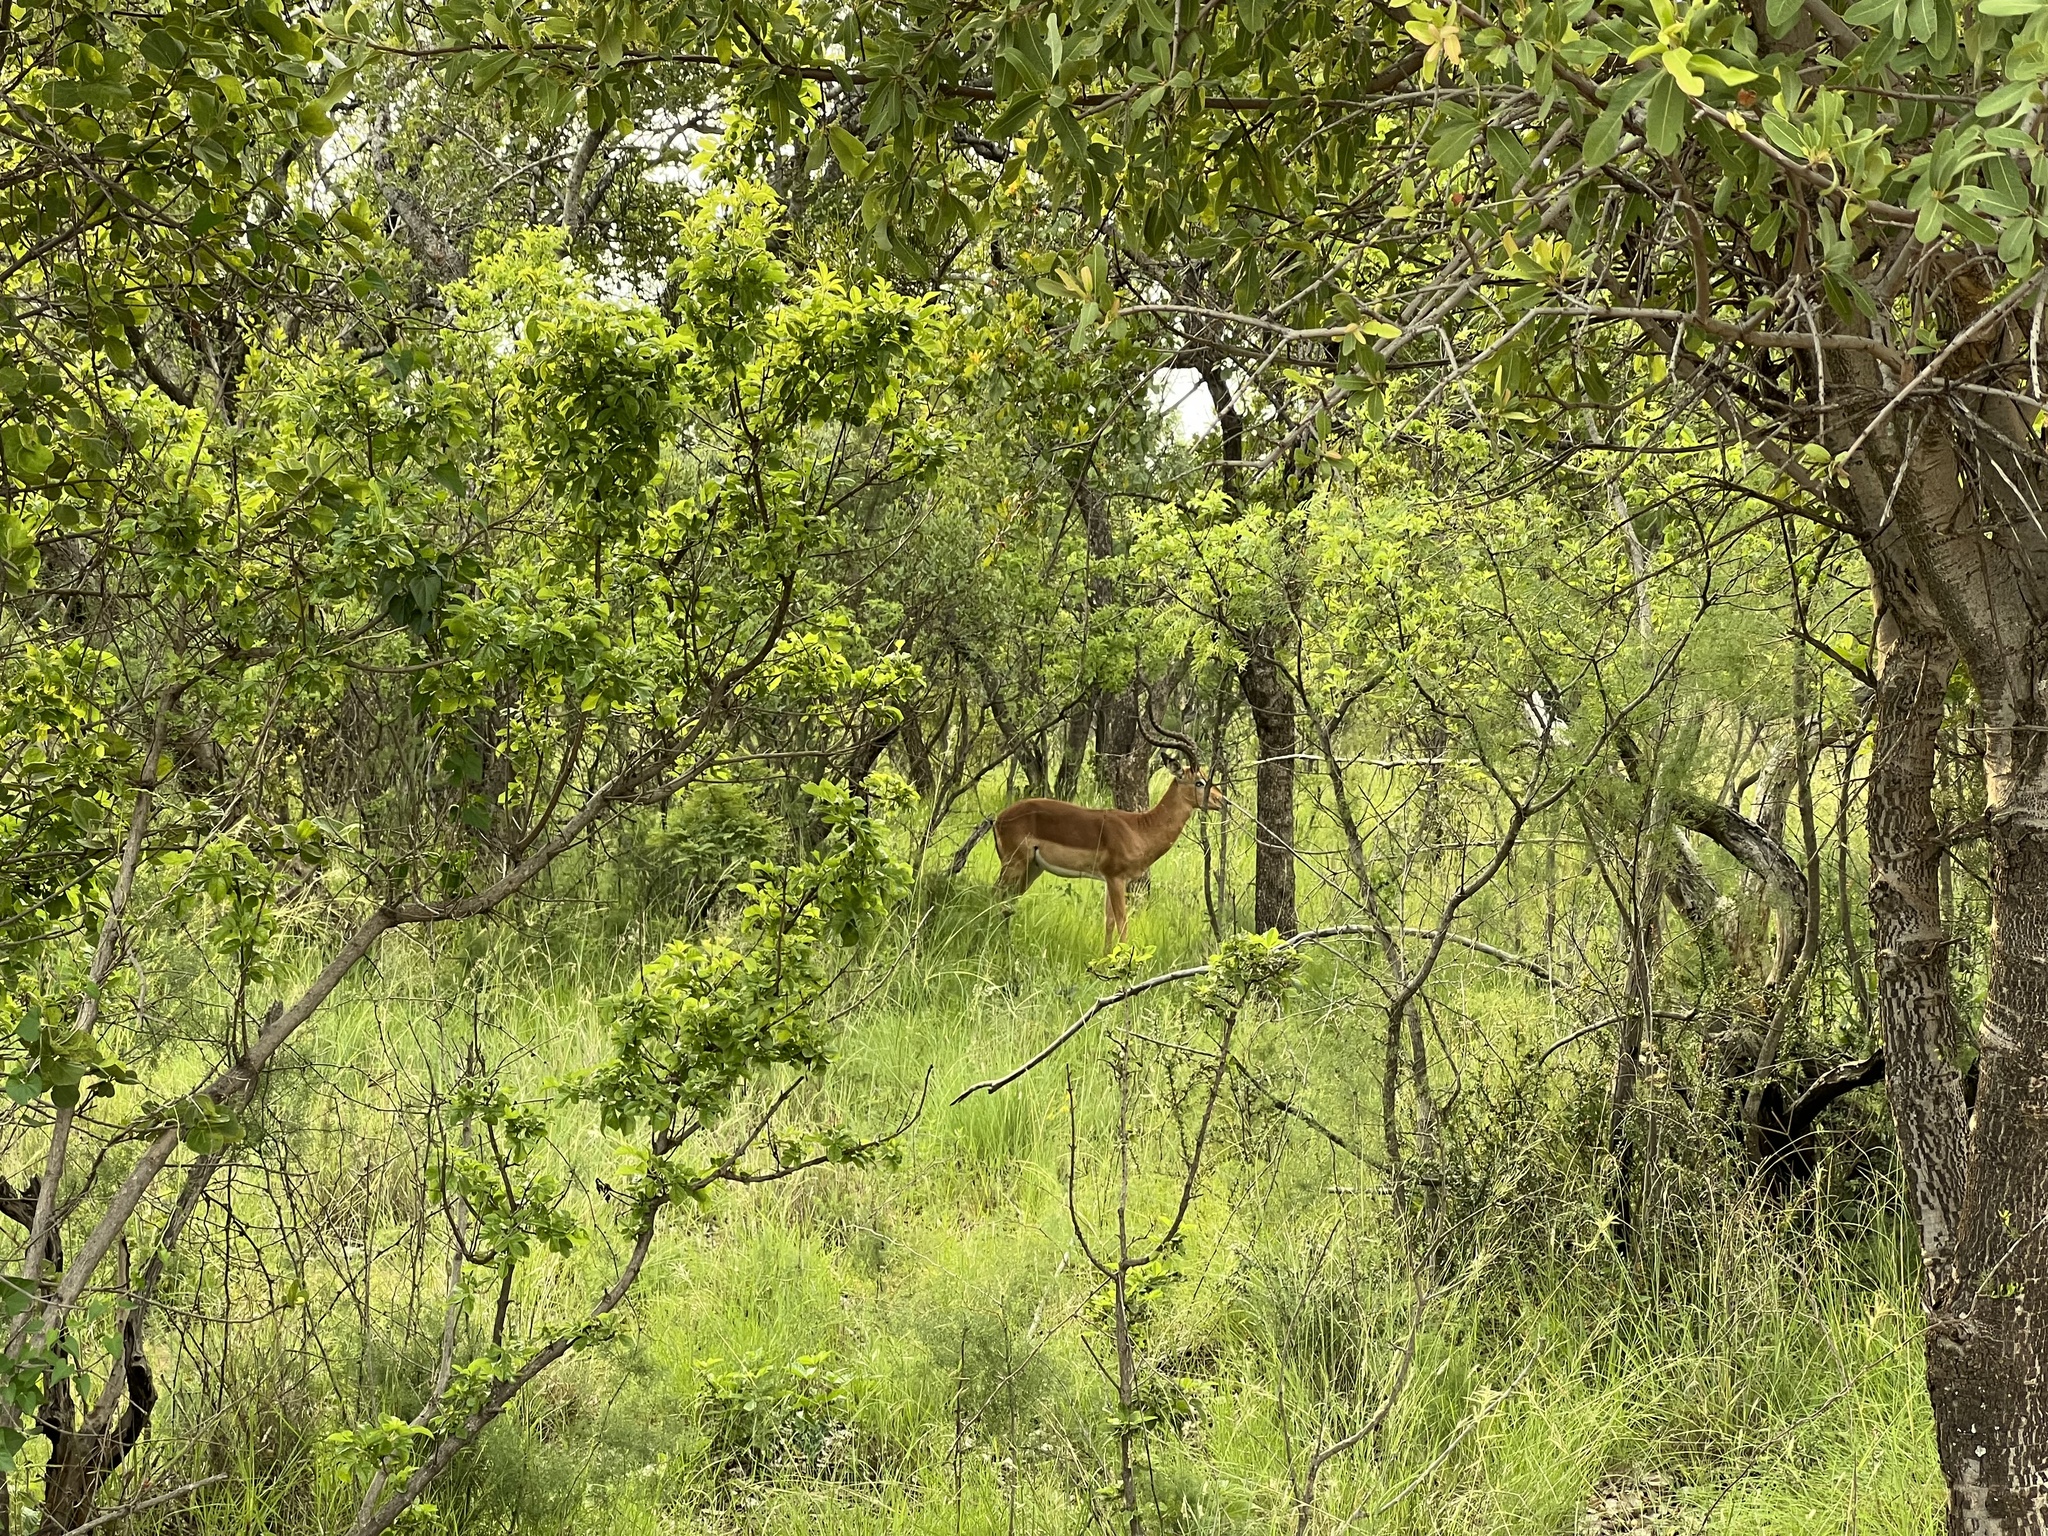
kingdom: Animalia
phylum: Chordata
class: Mammalia
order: Artiodactyla
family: Bovidae
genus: Aepyceros
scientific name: Aepyceros melampus
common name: Impala
